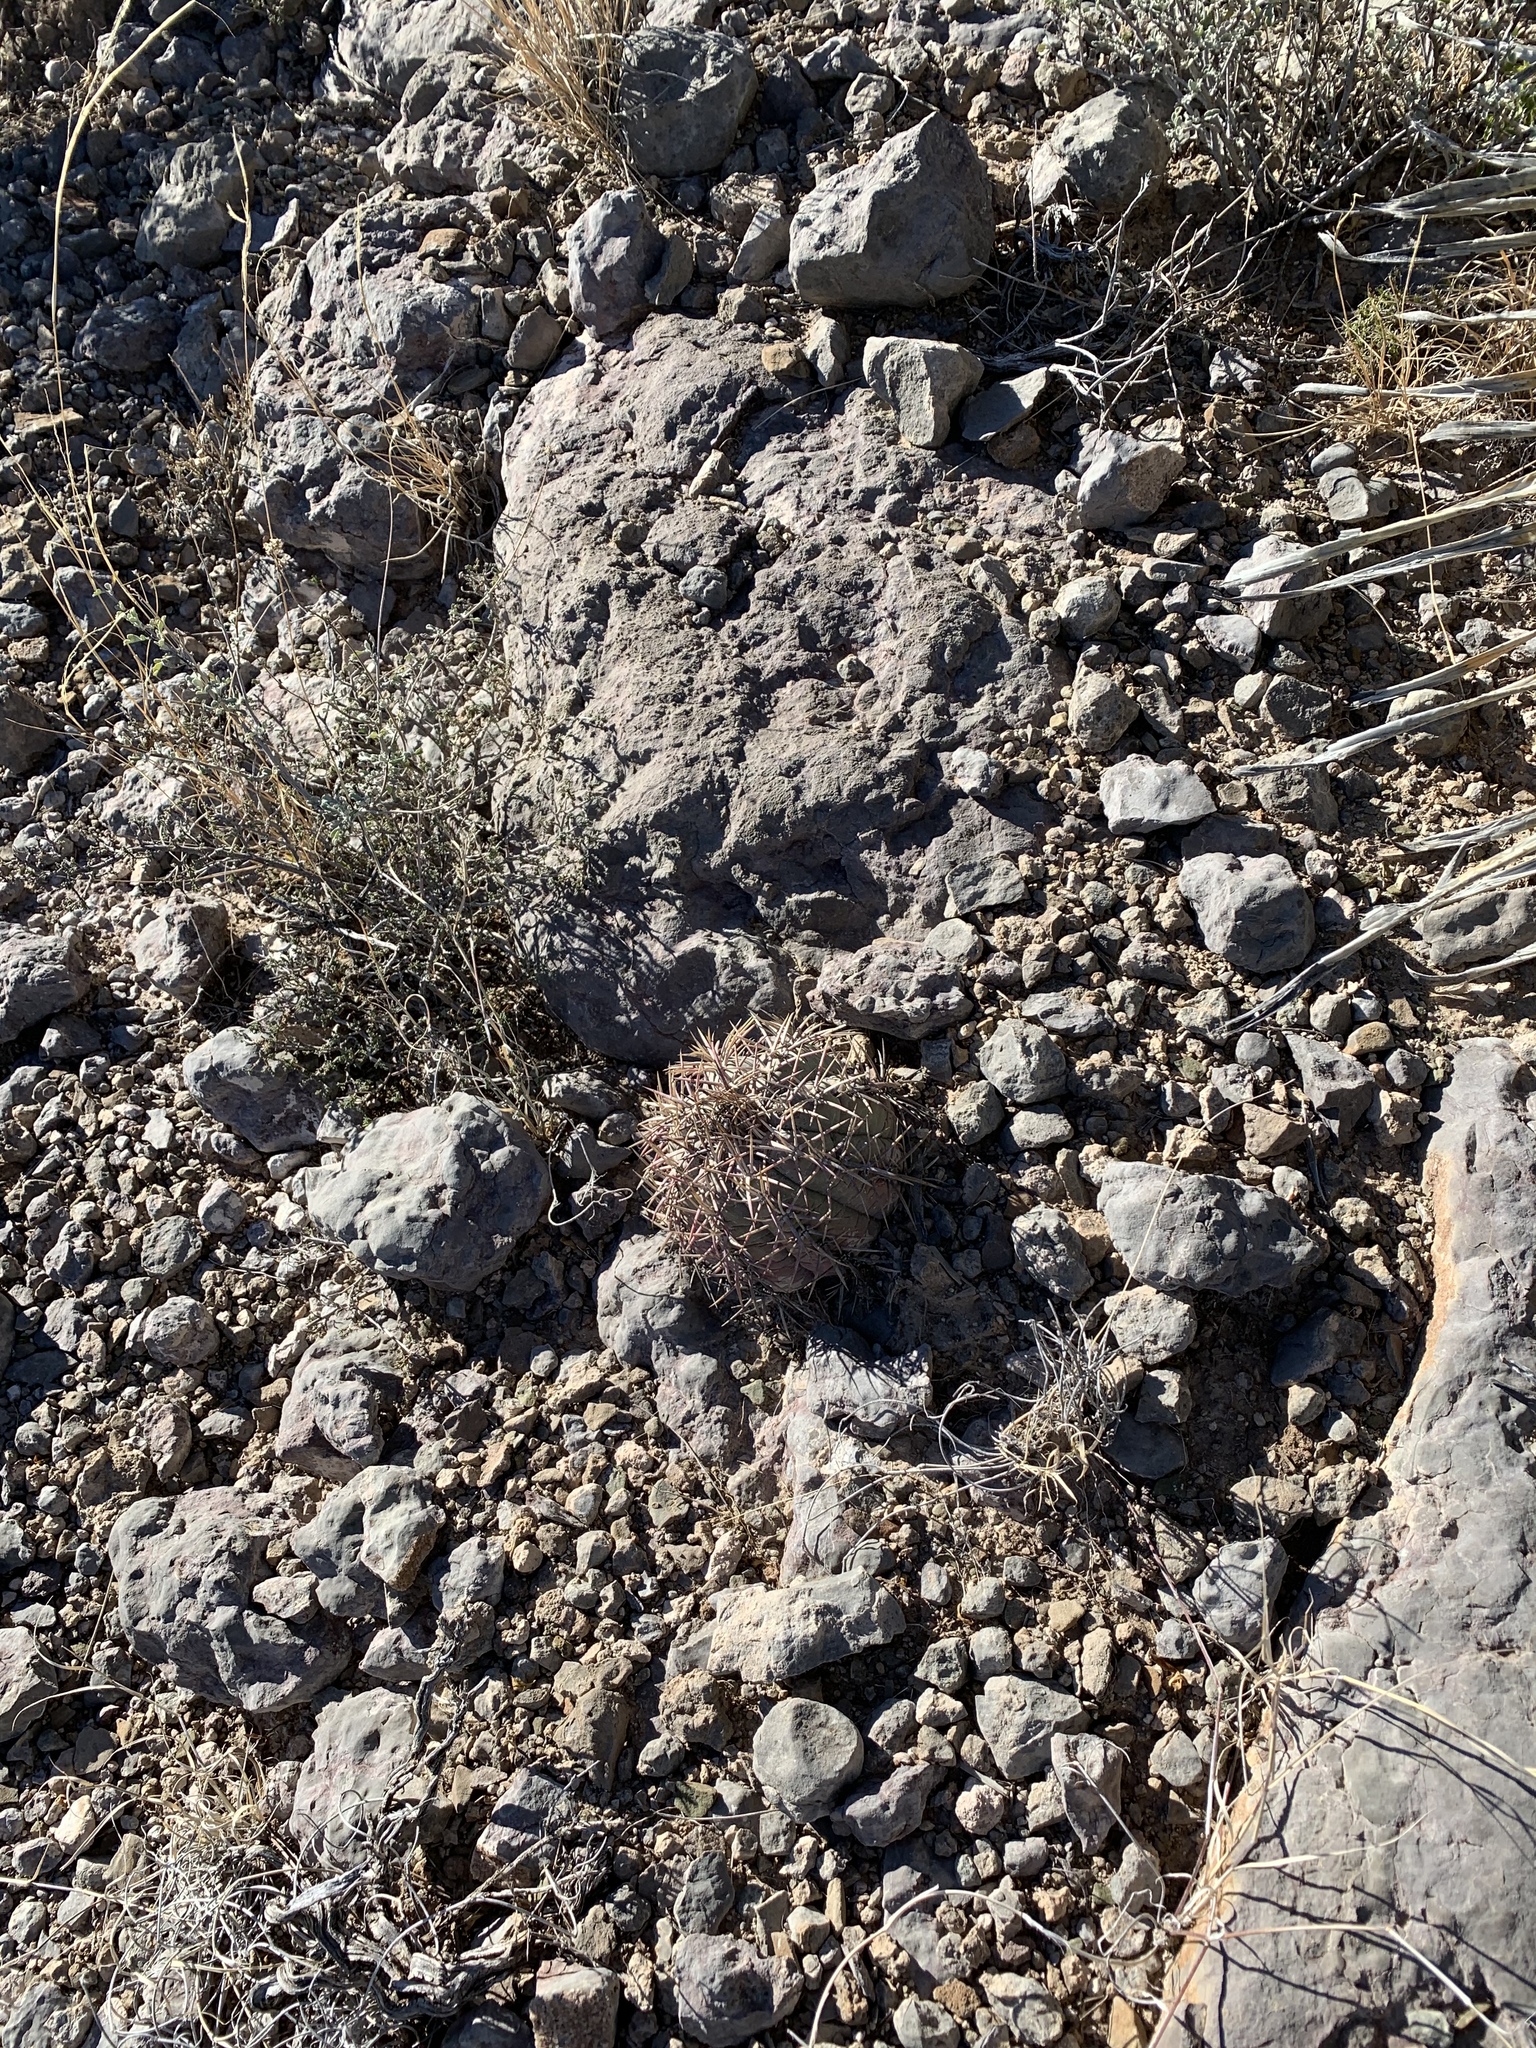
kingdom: Plantae
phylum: Tracheophyta
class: Magnoliopsida
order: Caryophyllales
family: Cactaceae
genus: Echinocactus
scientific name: Echinocactus horizonthalonius
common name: Devilshead
